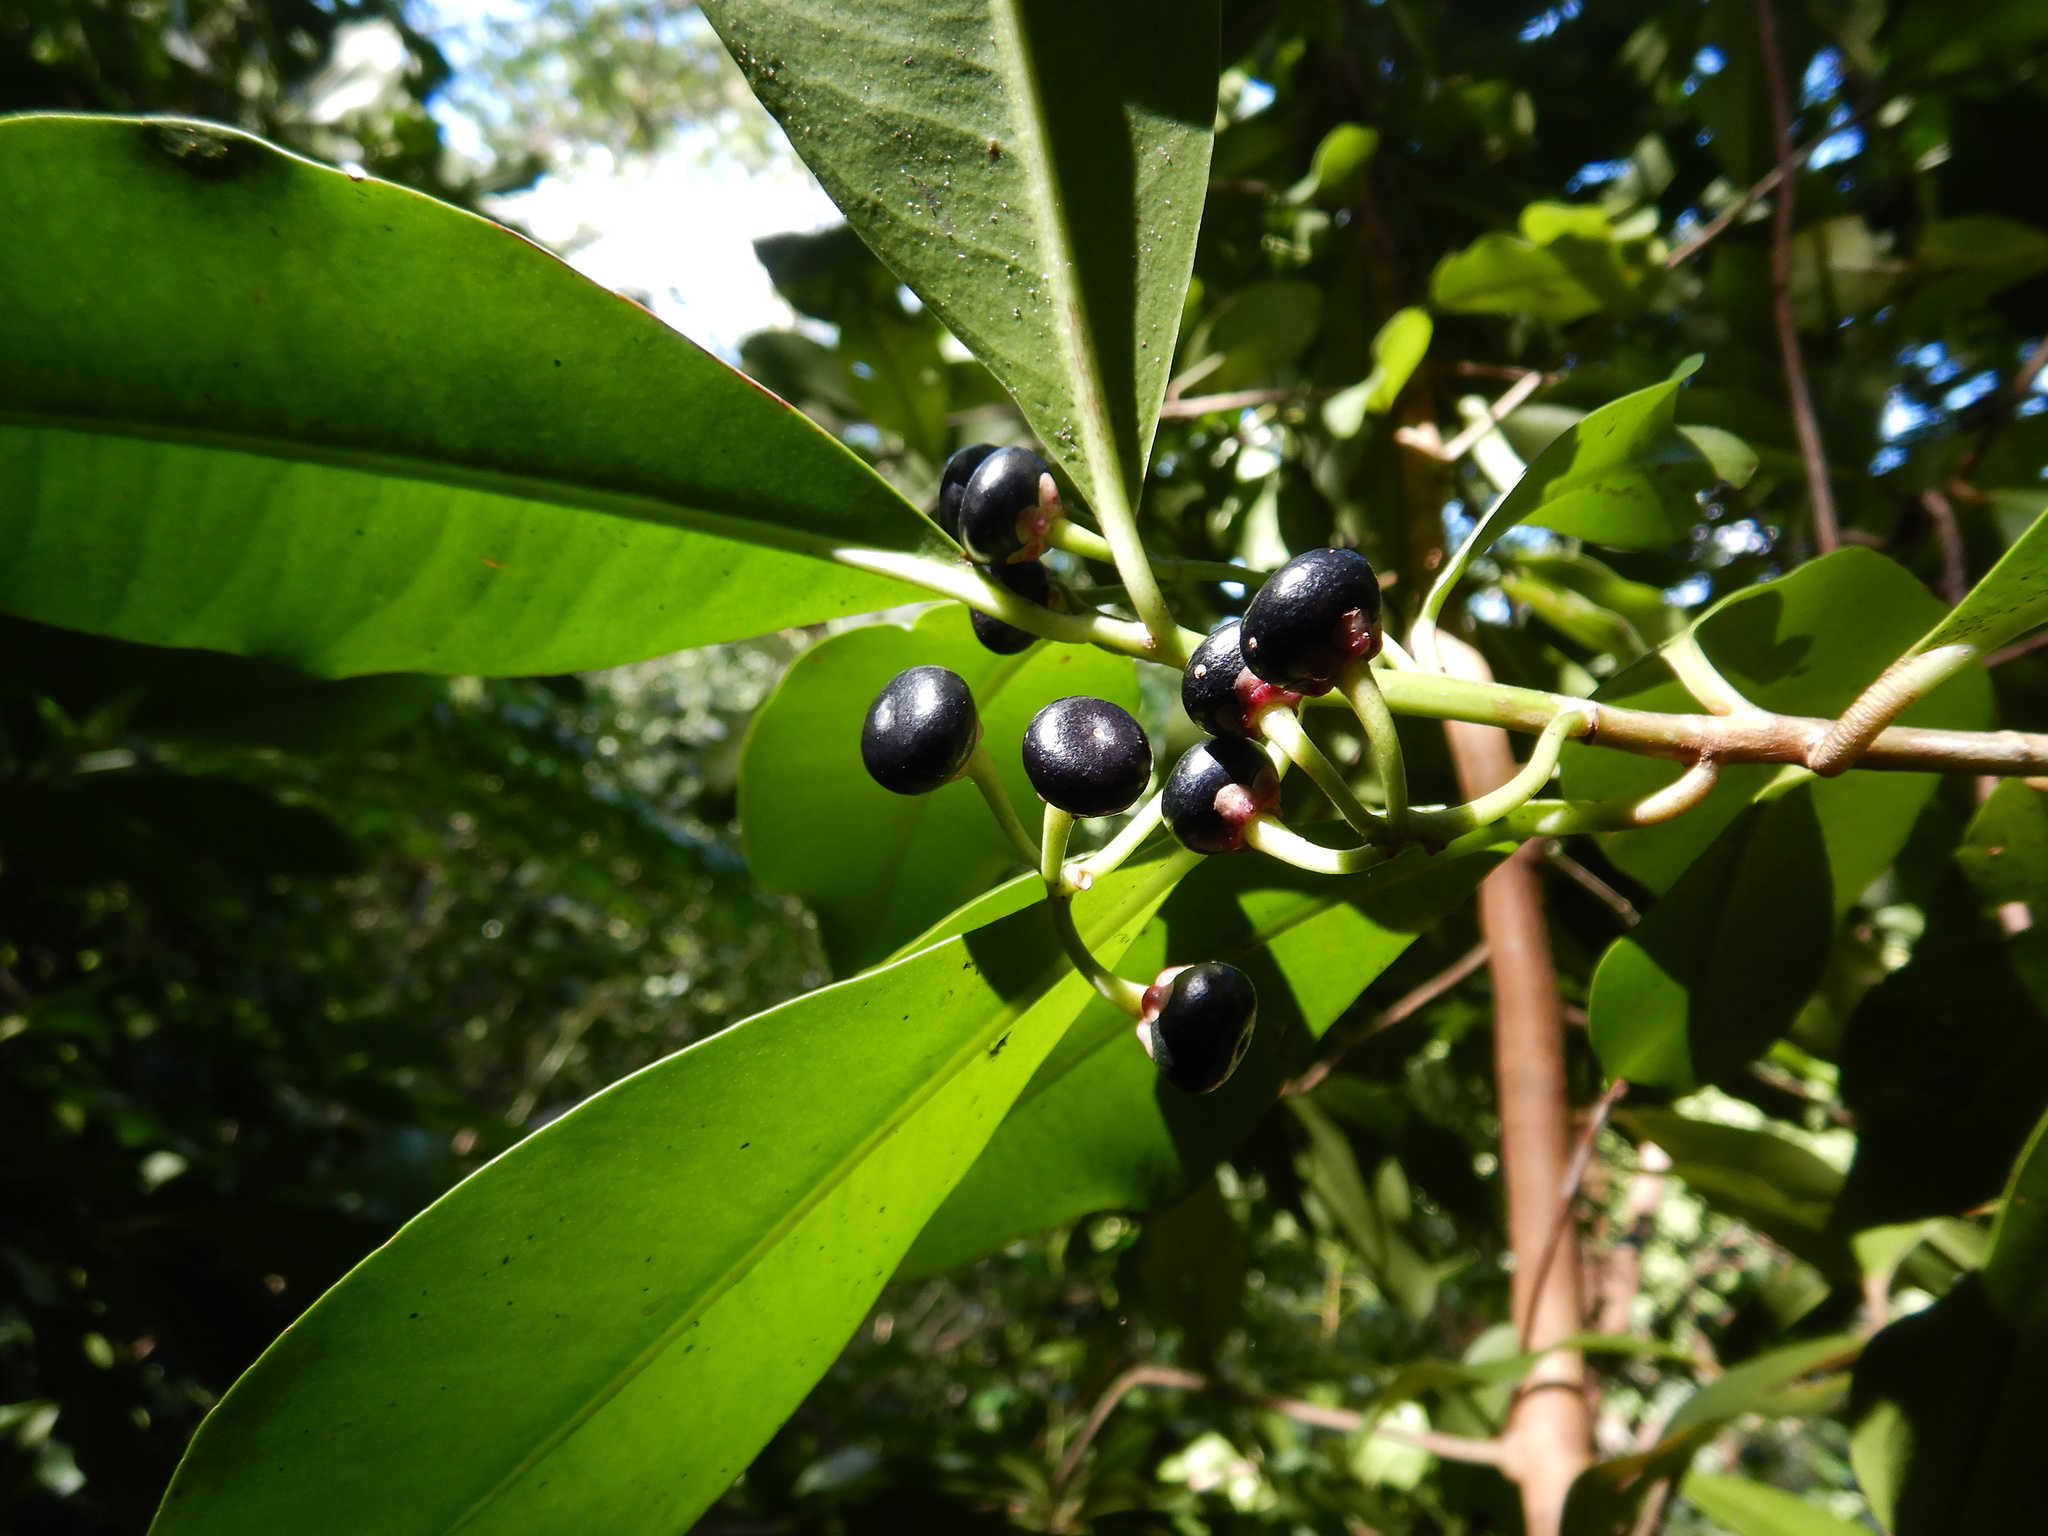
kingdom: Plantae
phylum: Tracheophyta
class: Magnoliopsida
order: Ericales
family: Primulaceae
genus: Ardisia
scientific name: Ardisia elliptica
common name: Shoebutton
